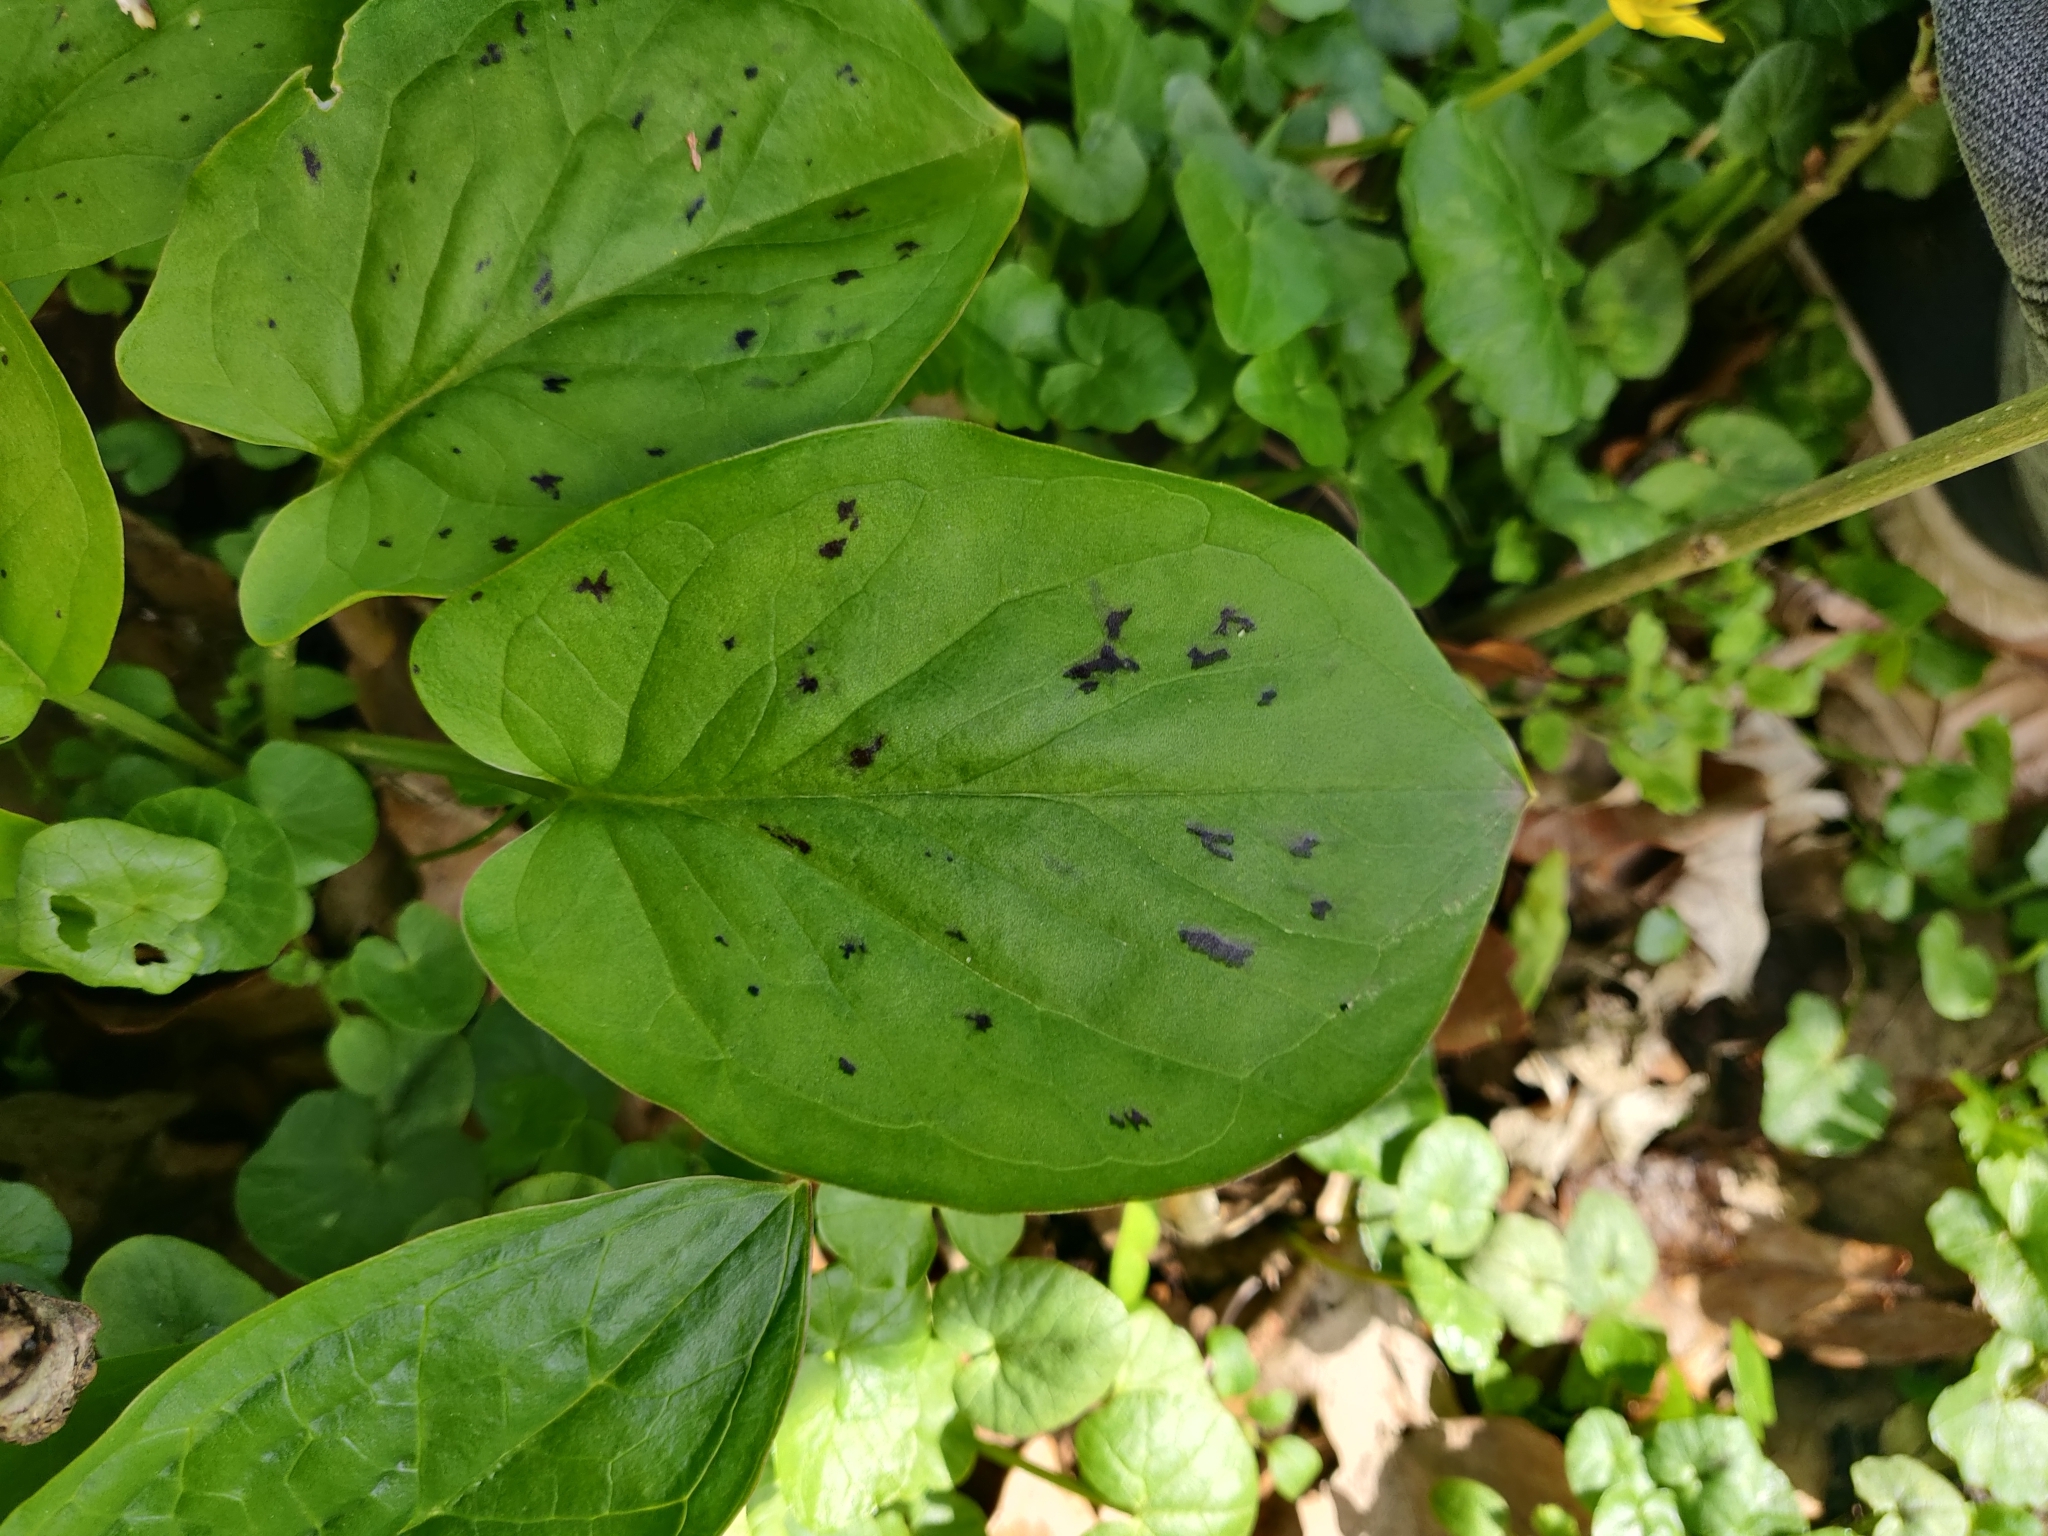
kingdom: Plantae
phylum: Tracheophyta
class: Liliopsida
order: Alismatales
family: Araceae
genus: Arum
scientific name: Arum maculatum
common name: Lords-and-ladies
